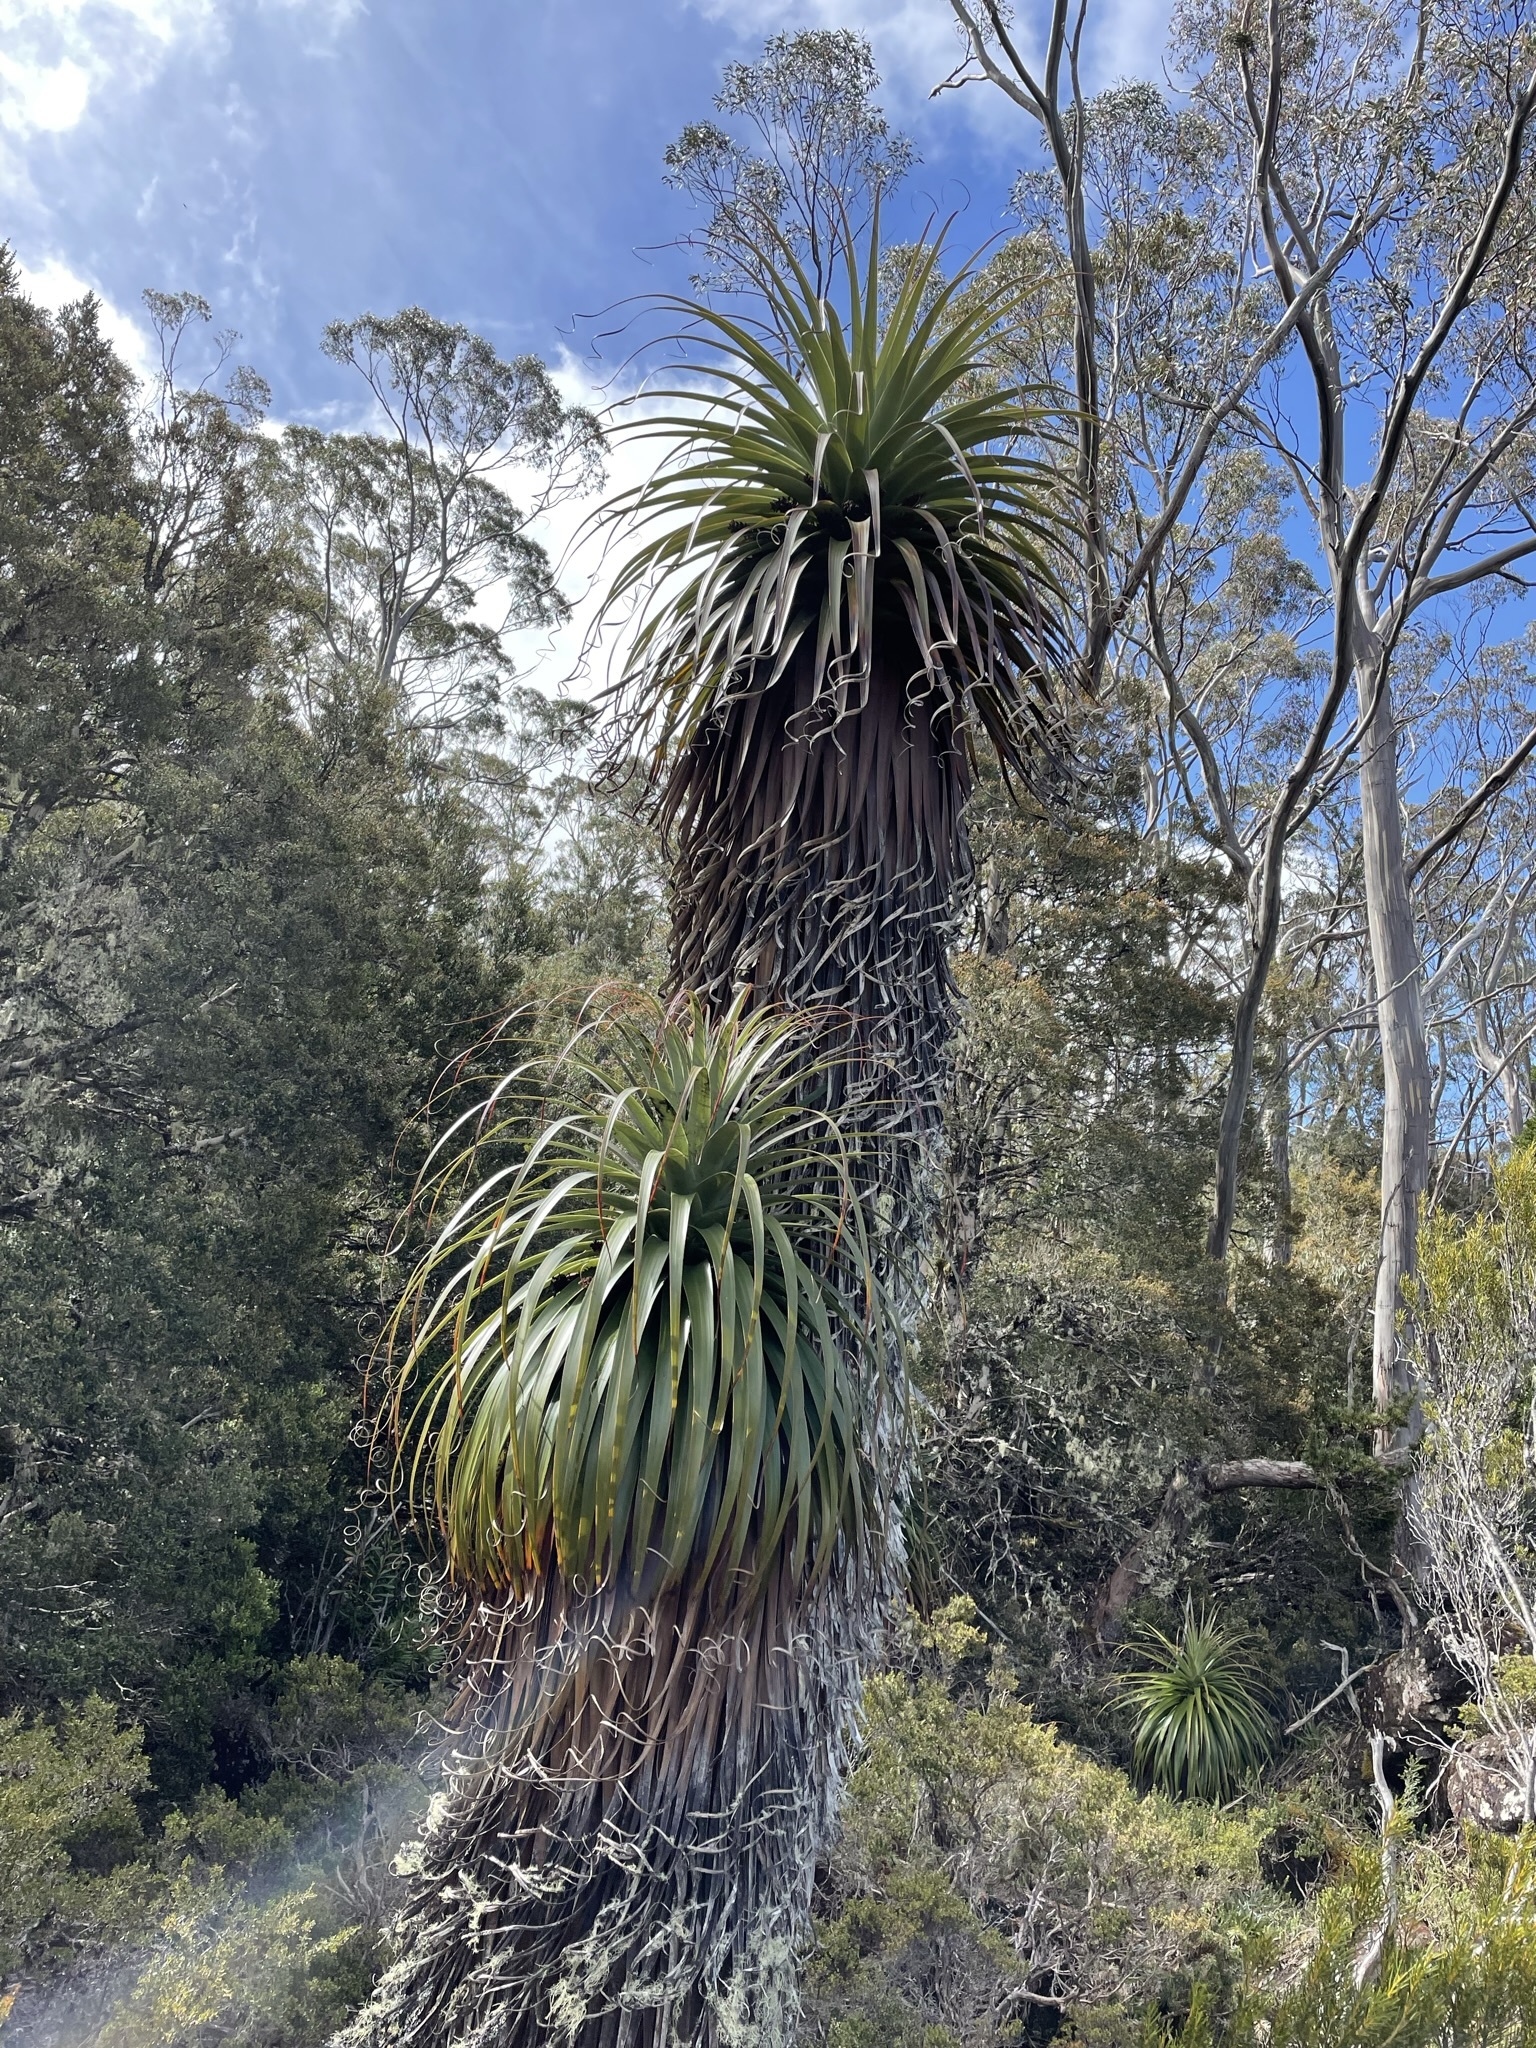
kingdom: Plantae
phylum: Tracheophyta
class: Magnoliopsida
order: Ericales
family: Ericaceae
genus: Dracophyllum
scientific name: Dracophyllum pandanifolium
